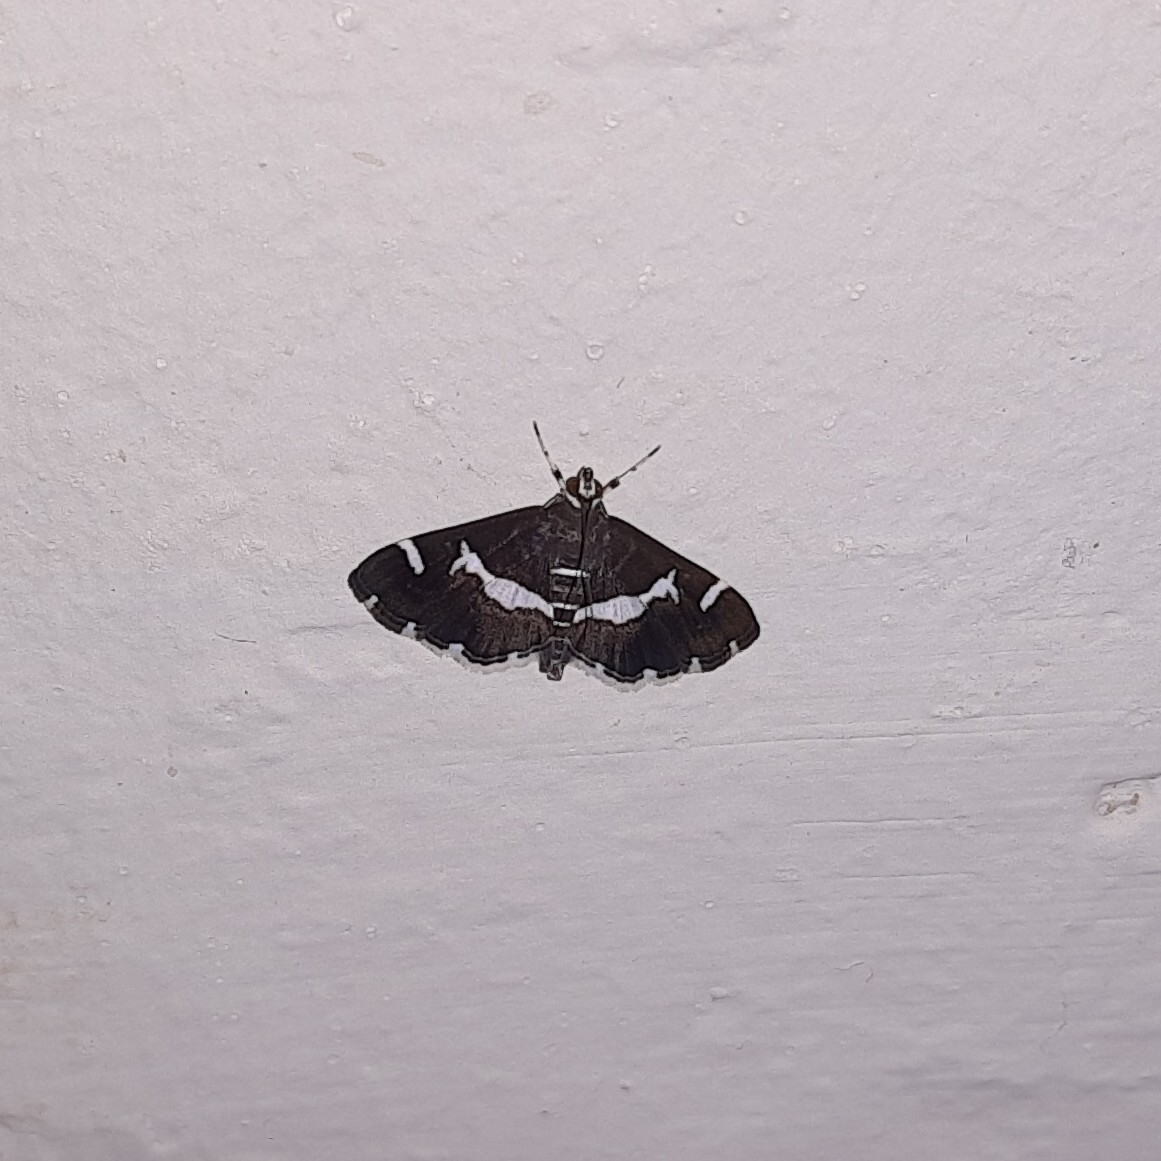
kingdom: Animalia
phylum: Arthropoda
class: Insecta
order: Lepidoptera
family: Crambidae
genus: Spoladea
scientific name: Spoladea recurvalis
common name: Beet webworm moth
